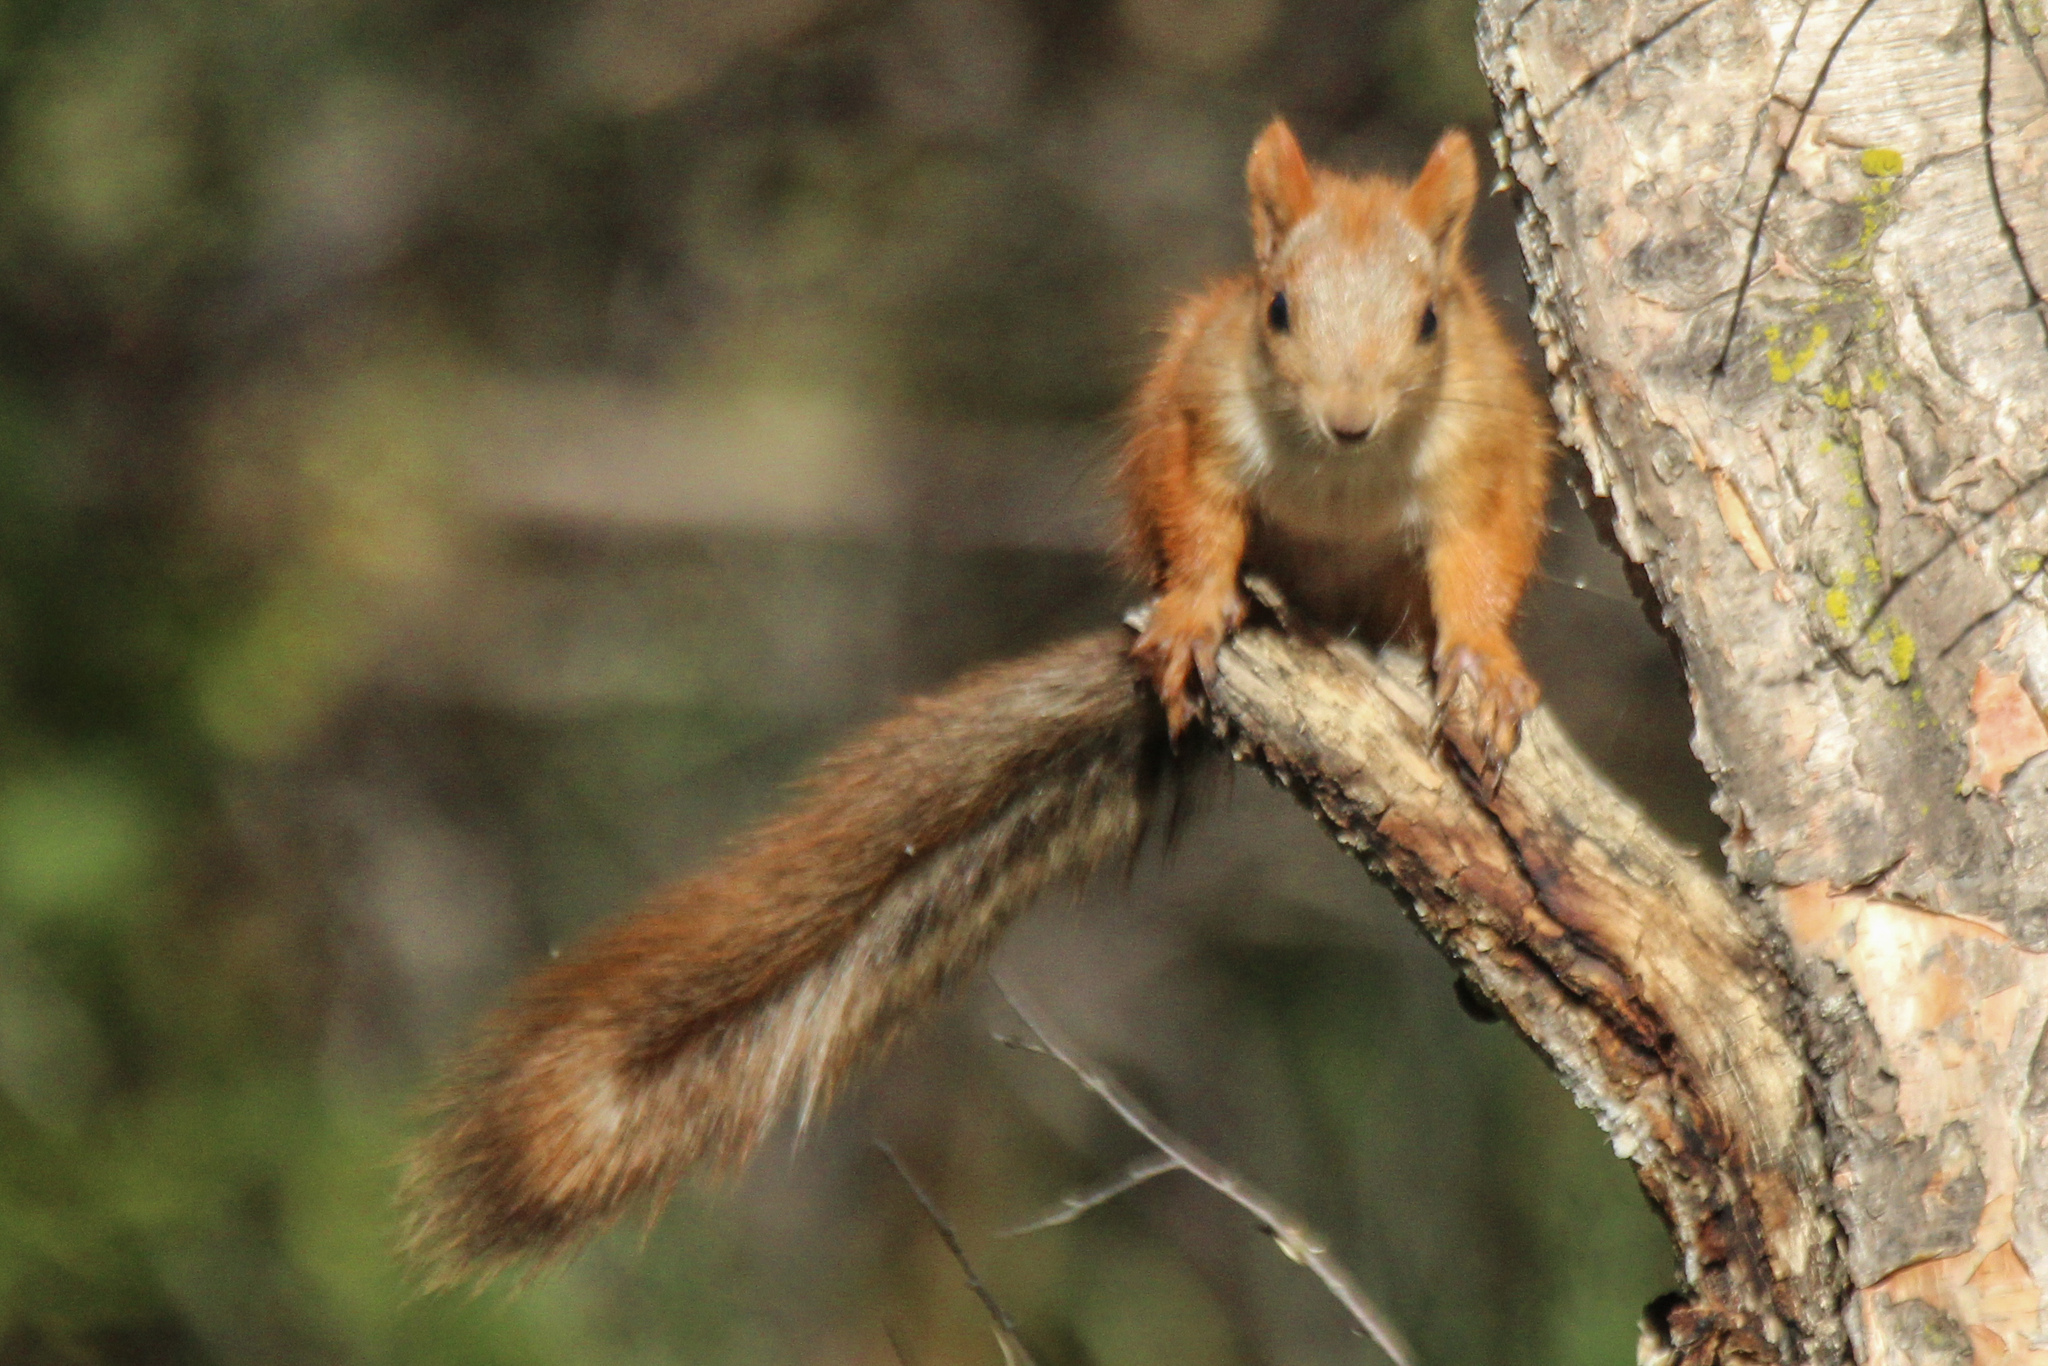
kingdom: Animalia
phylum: Chordata
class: Mammalia
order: Rodentia
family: Sciuridae
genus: Sciurus
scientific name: Sciurus vulgaris
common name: Eurasian red squirrel
